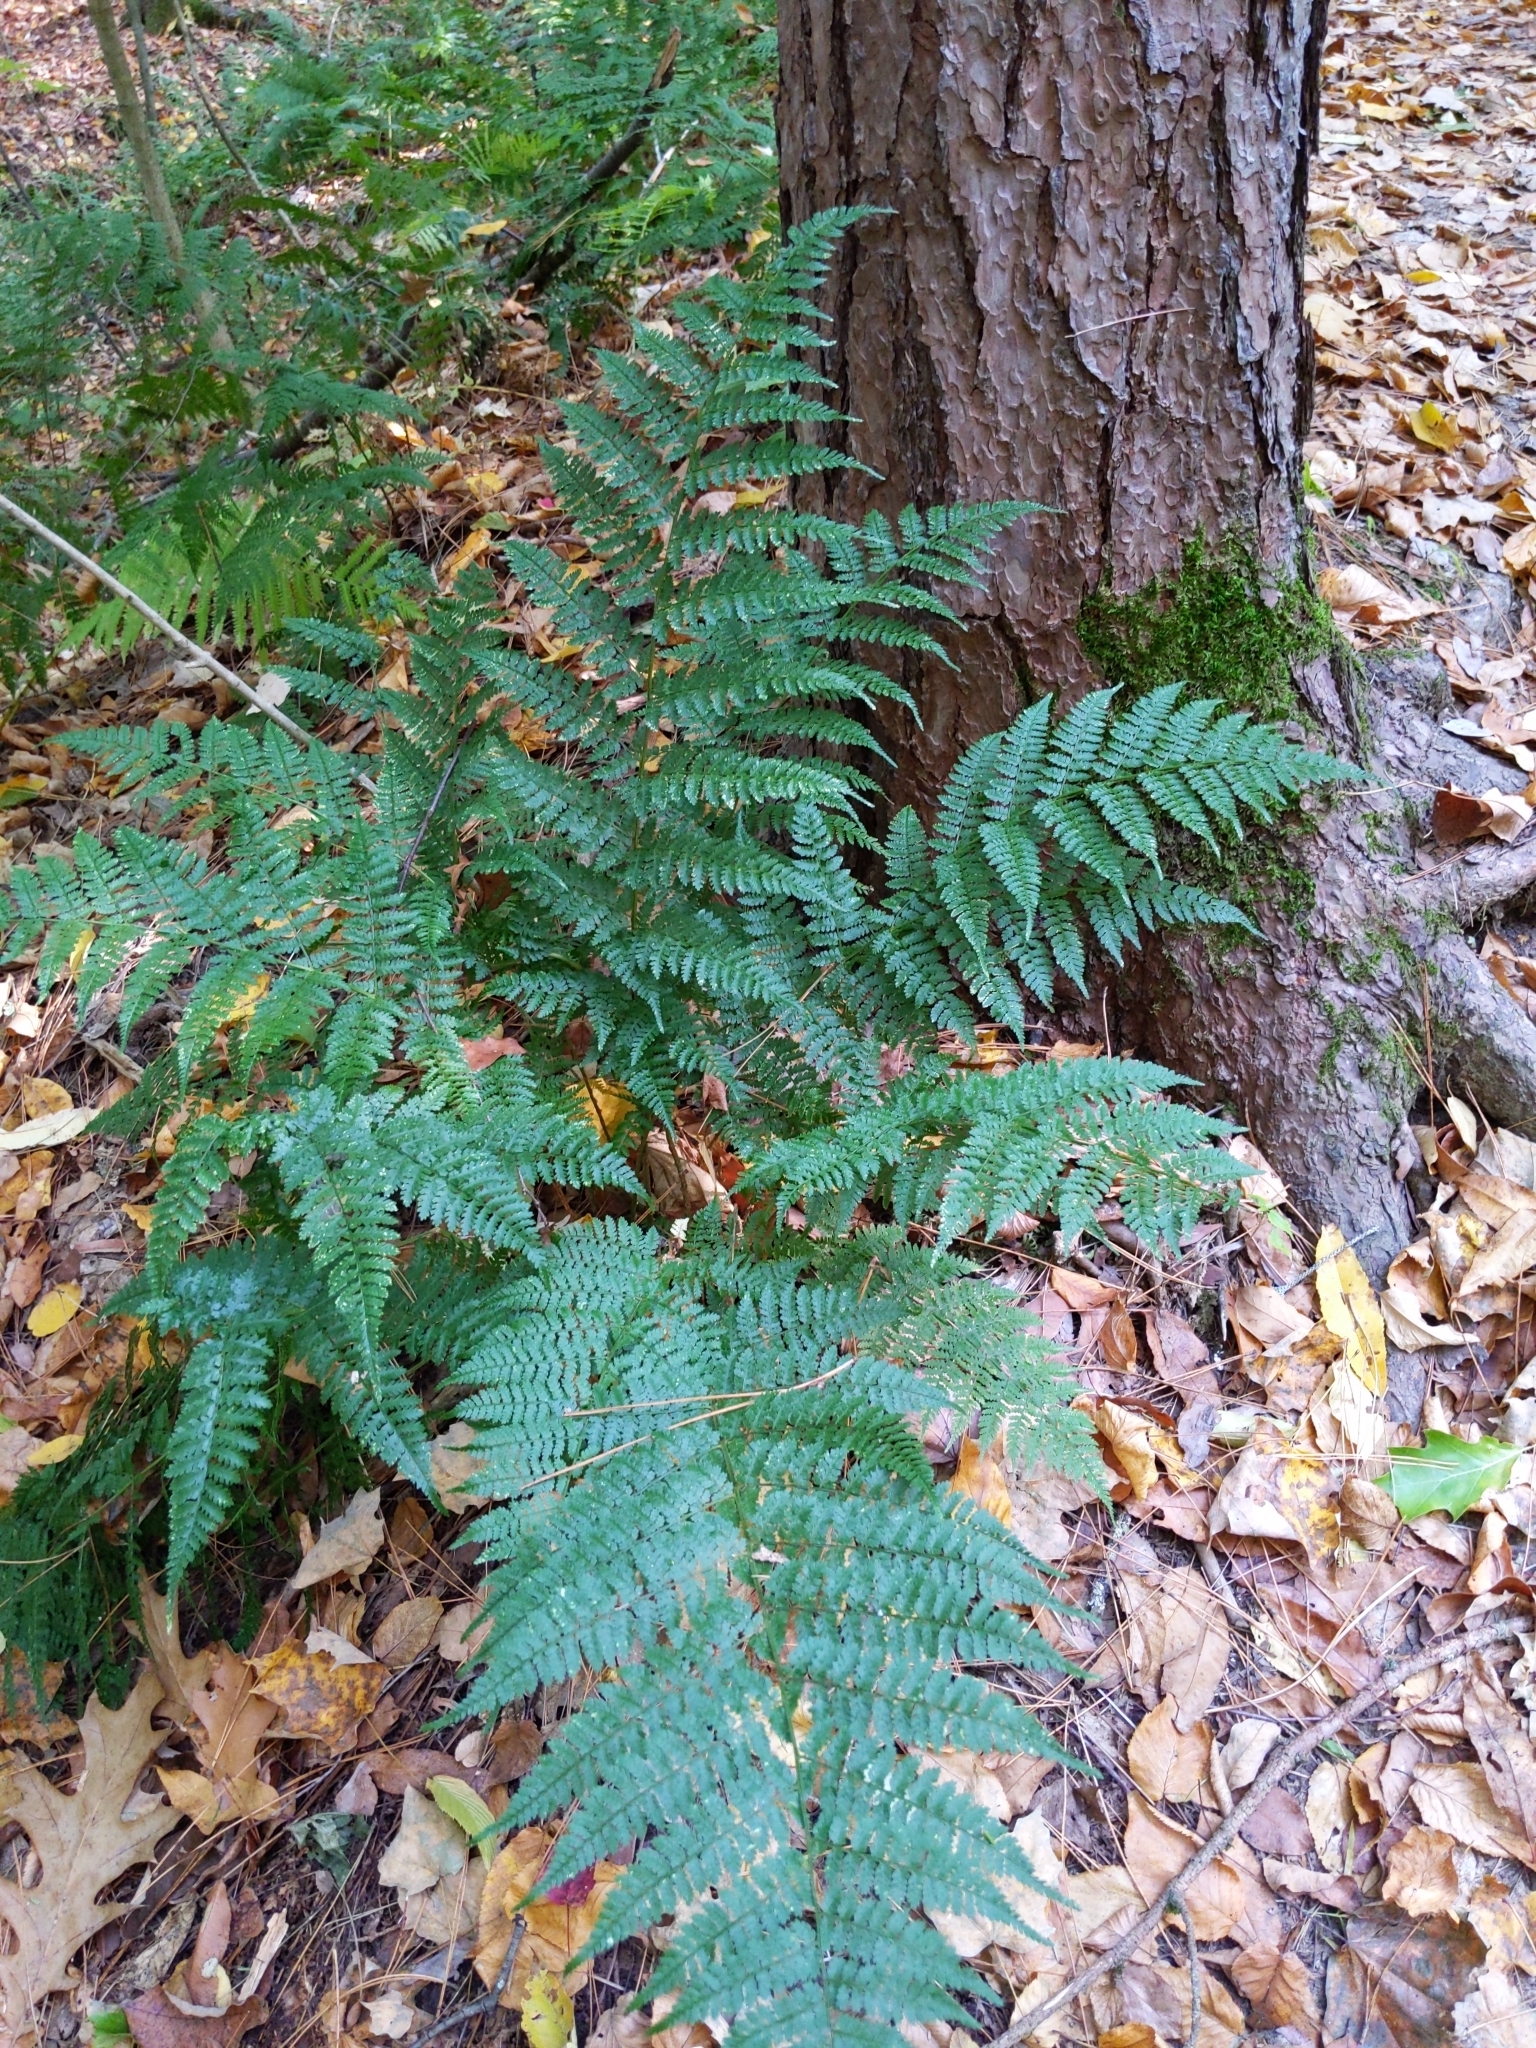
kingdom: Plantae
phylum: Tracheophyta
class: Polypodiopsida
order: Polypodiales
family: Dryopteridaceae
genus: Dryopteris
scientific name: Dryopteris intermedia
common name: Evergreen wood fern
